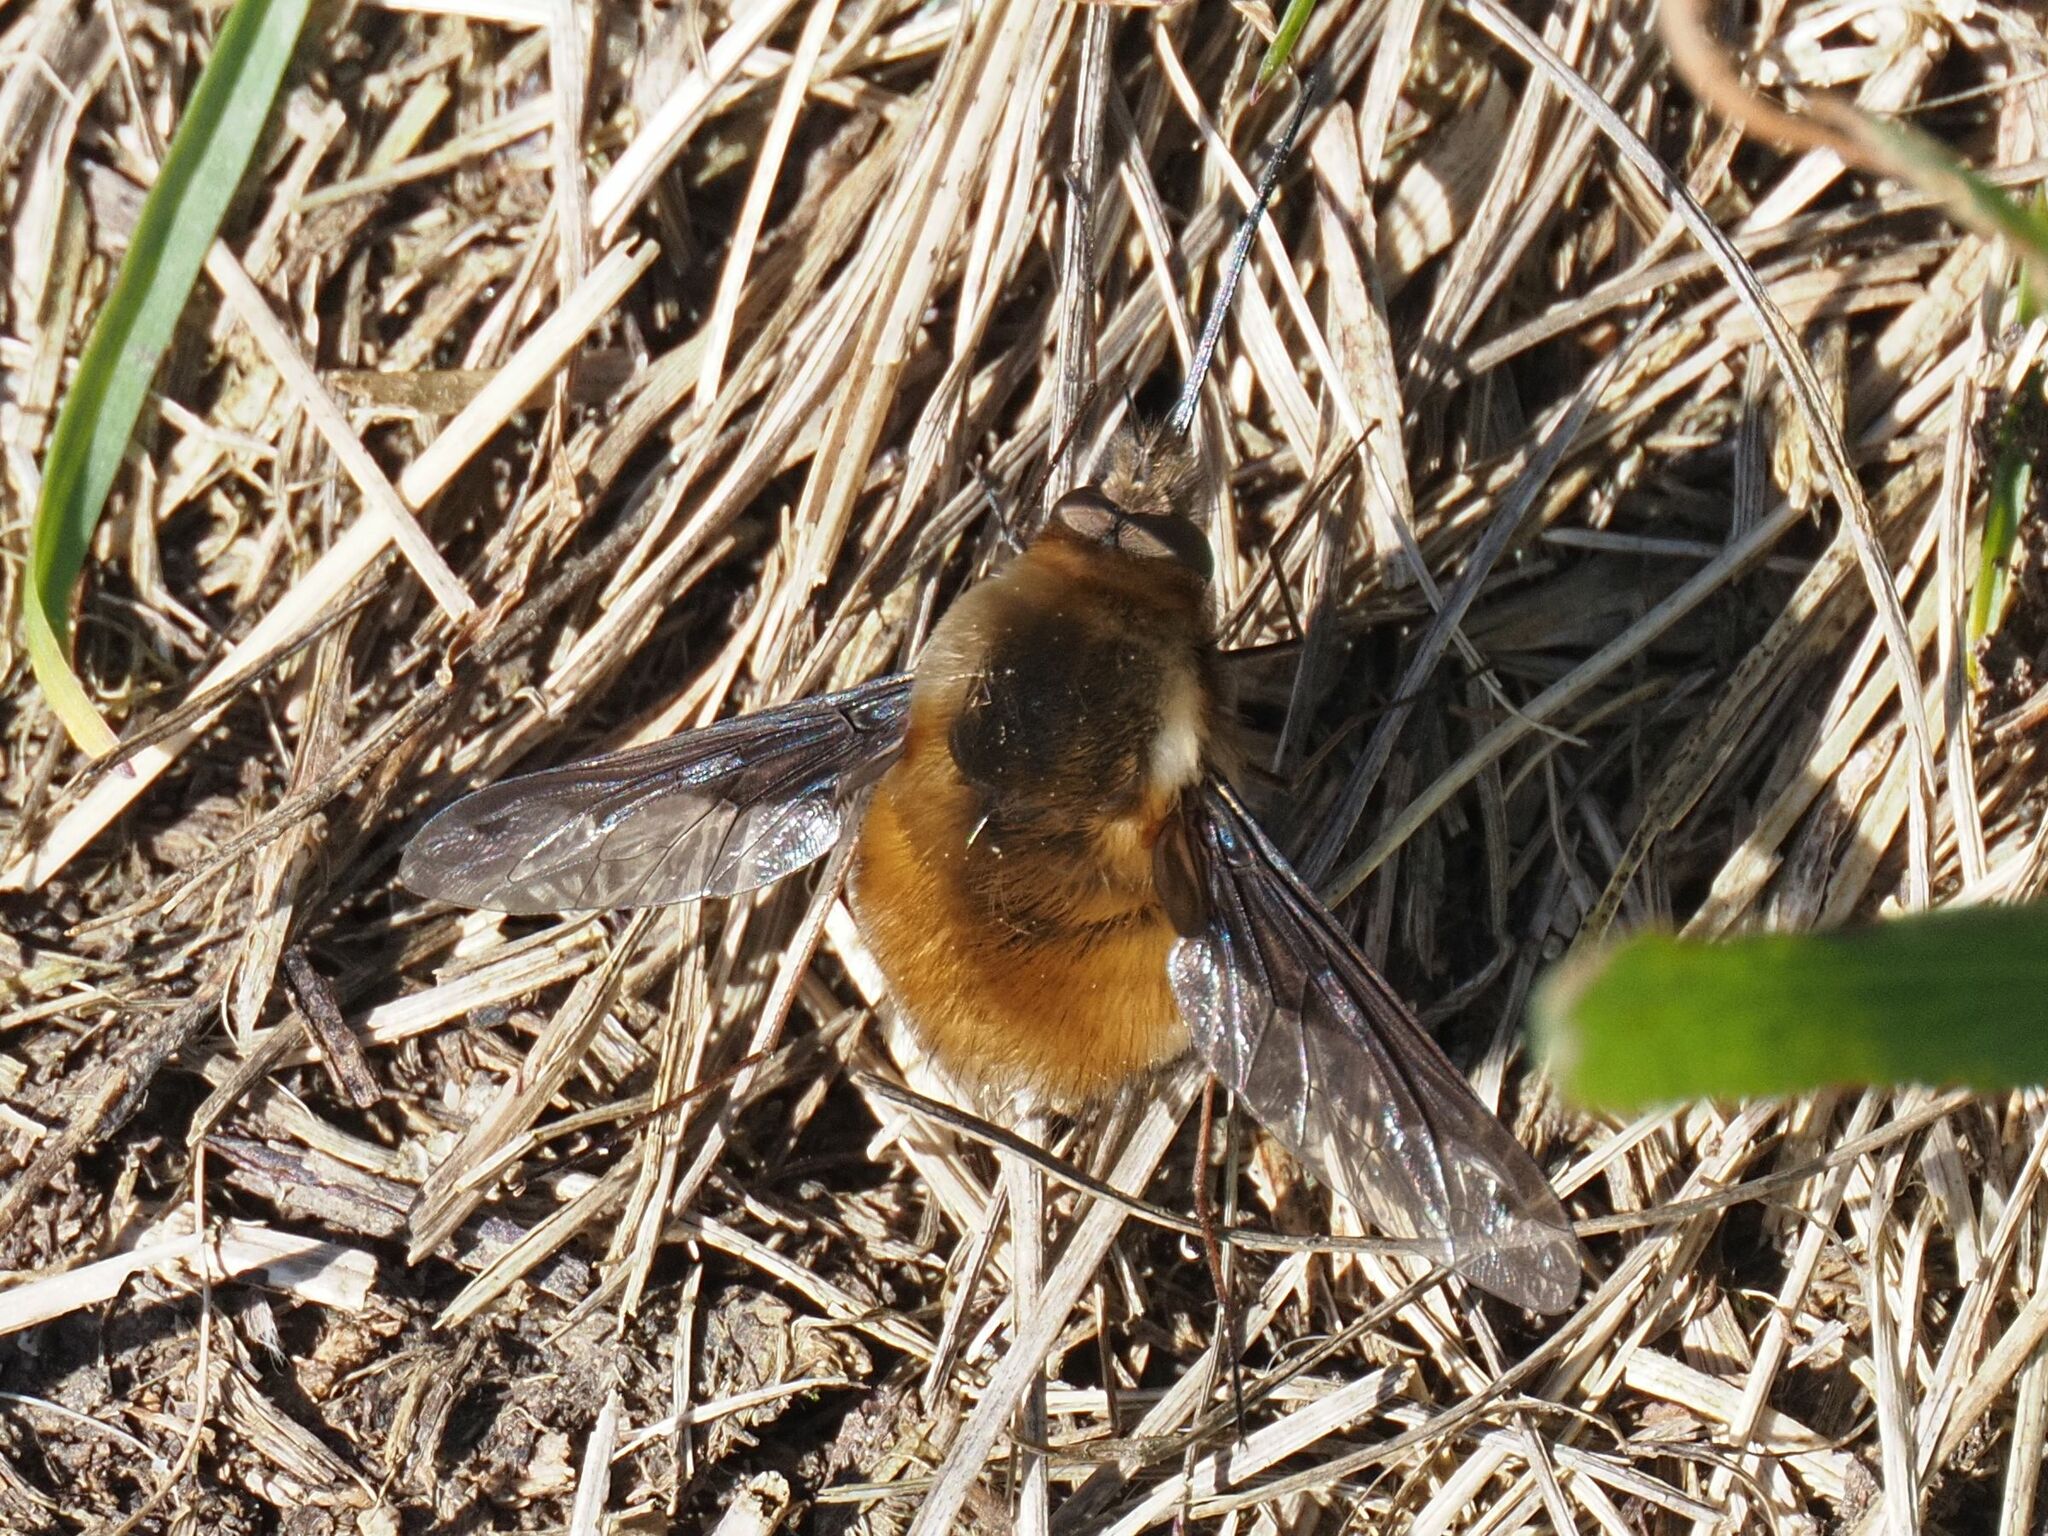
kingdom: Animalia
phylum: Arthropoda
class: Insecta
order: Diptera
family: Bombyliidae
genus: Bombylius
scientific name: Bombylius major
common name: Bee fly
